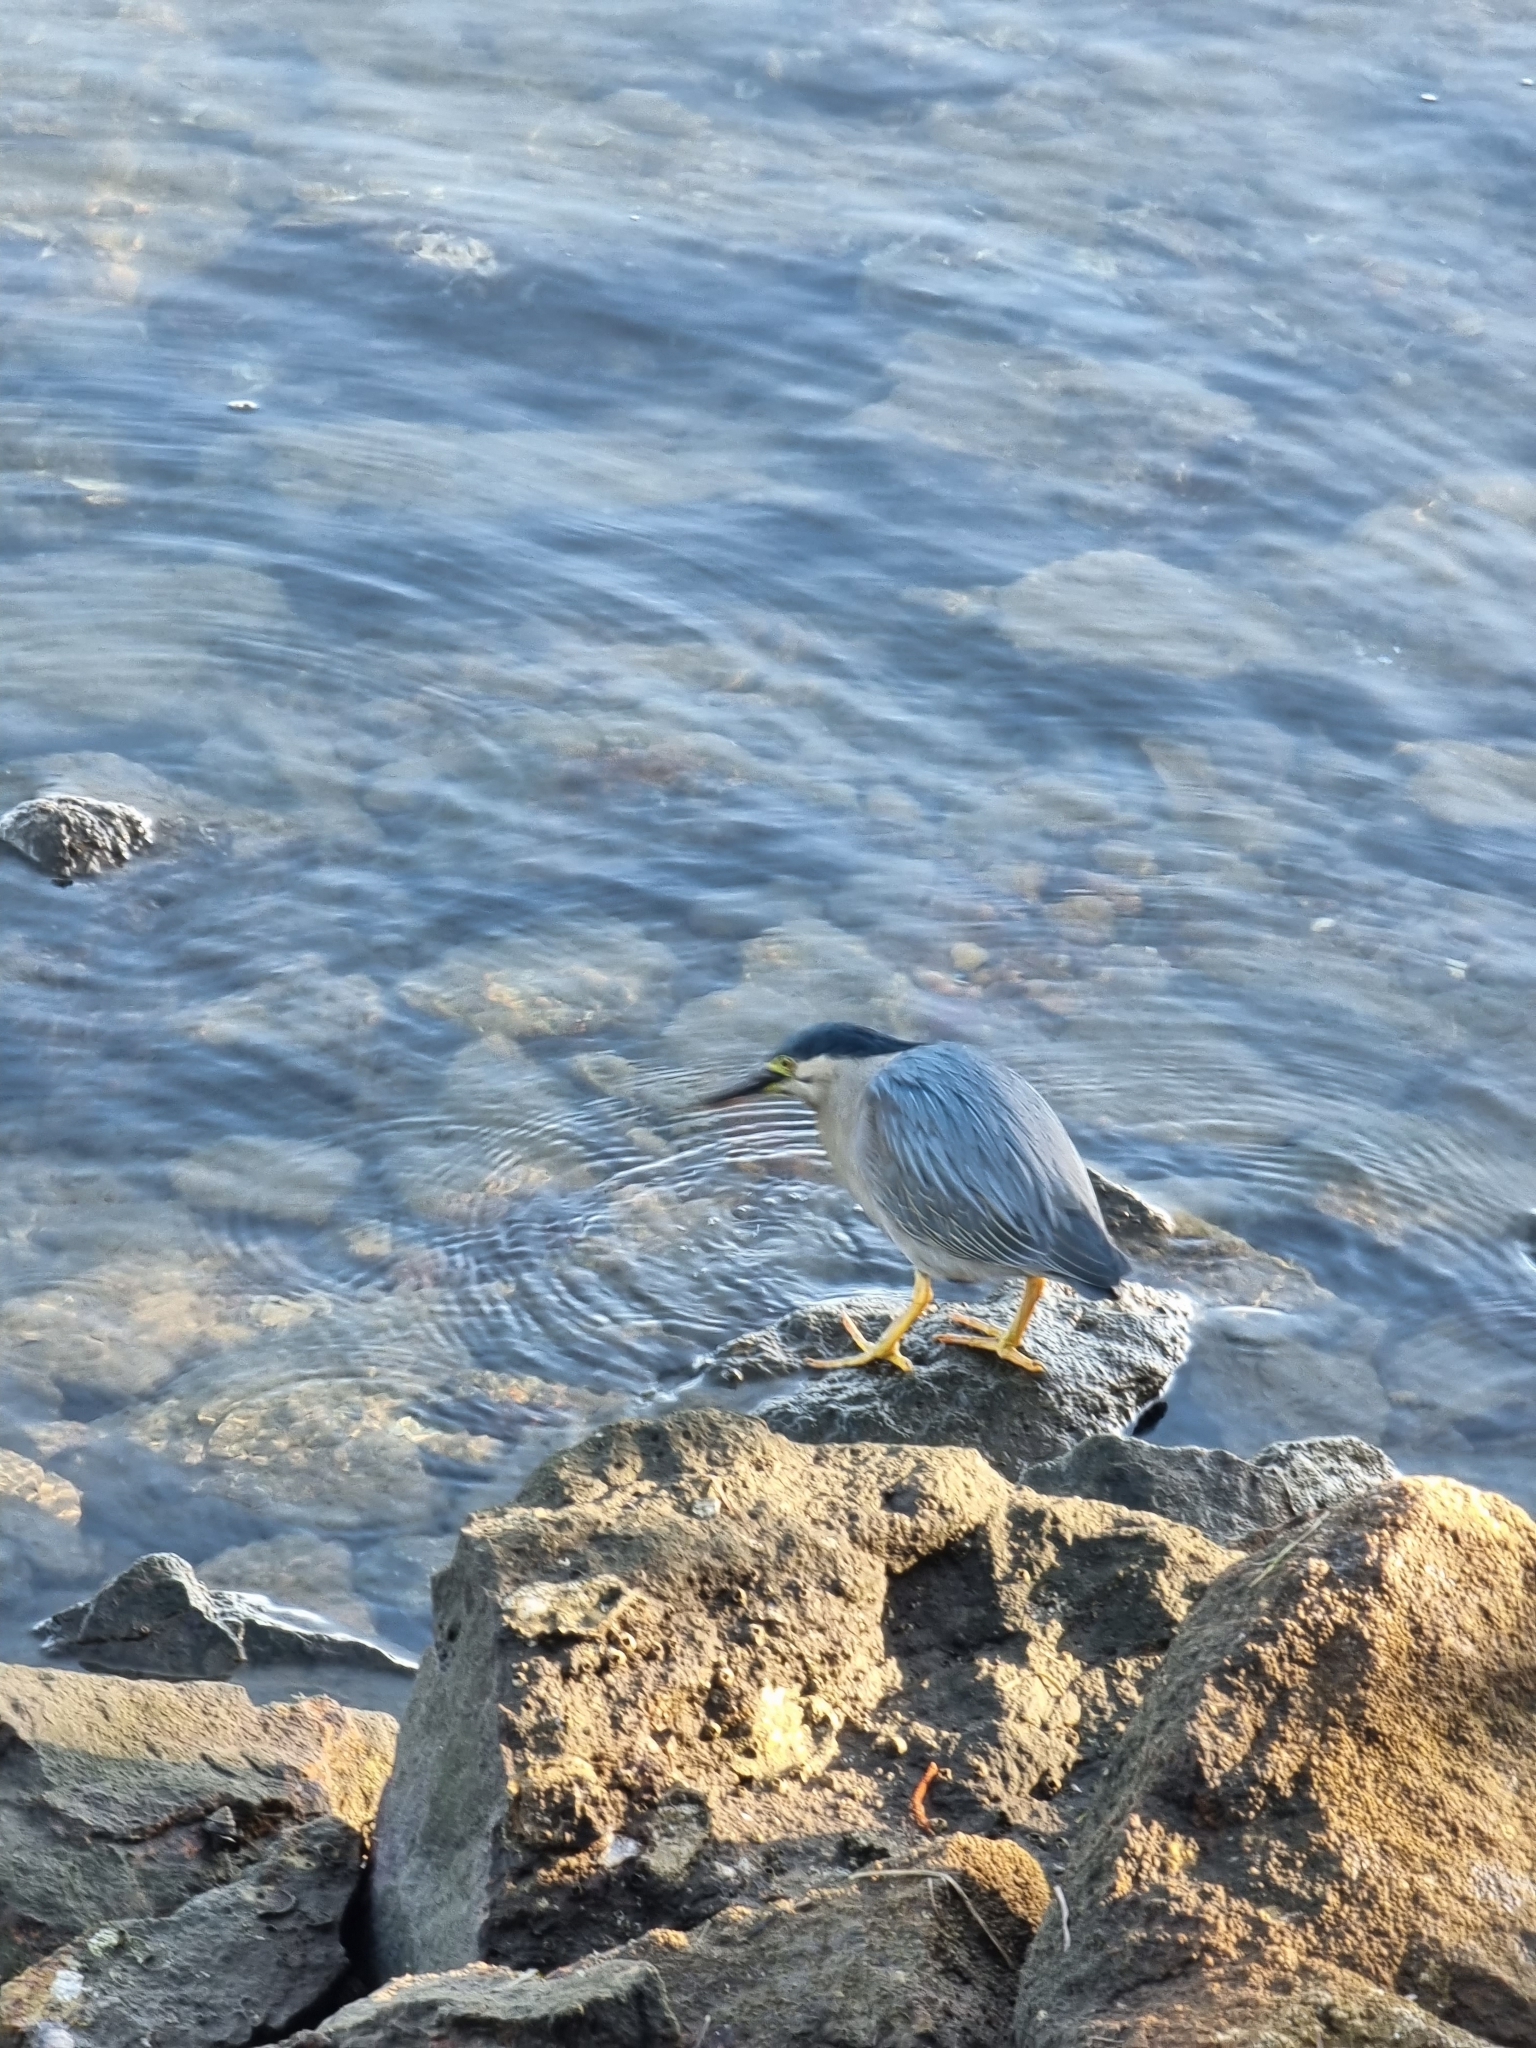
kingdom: Animalia
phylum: Chordata
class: Aves
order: Pelecaniformes
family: Ardeidae
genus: Butorides
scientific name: Butorides striata
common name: Striated heron
